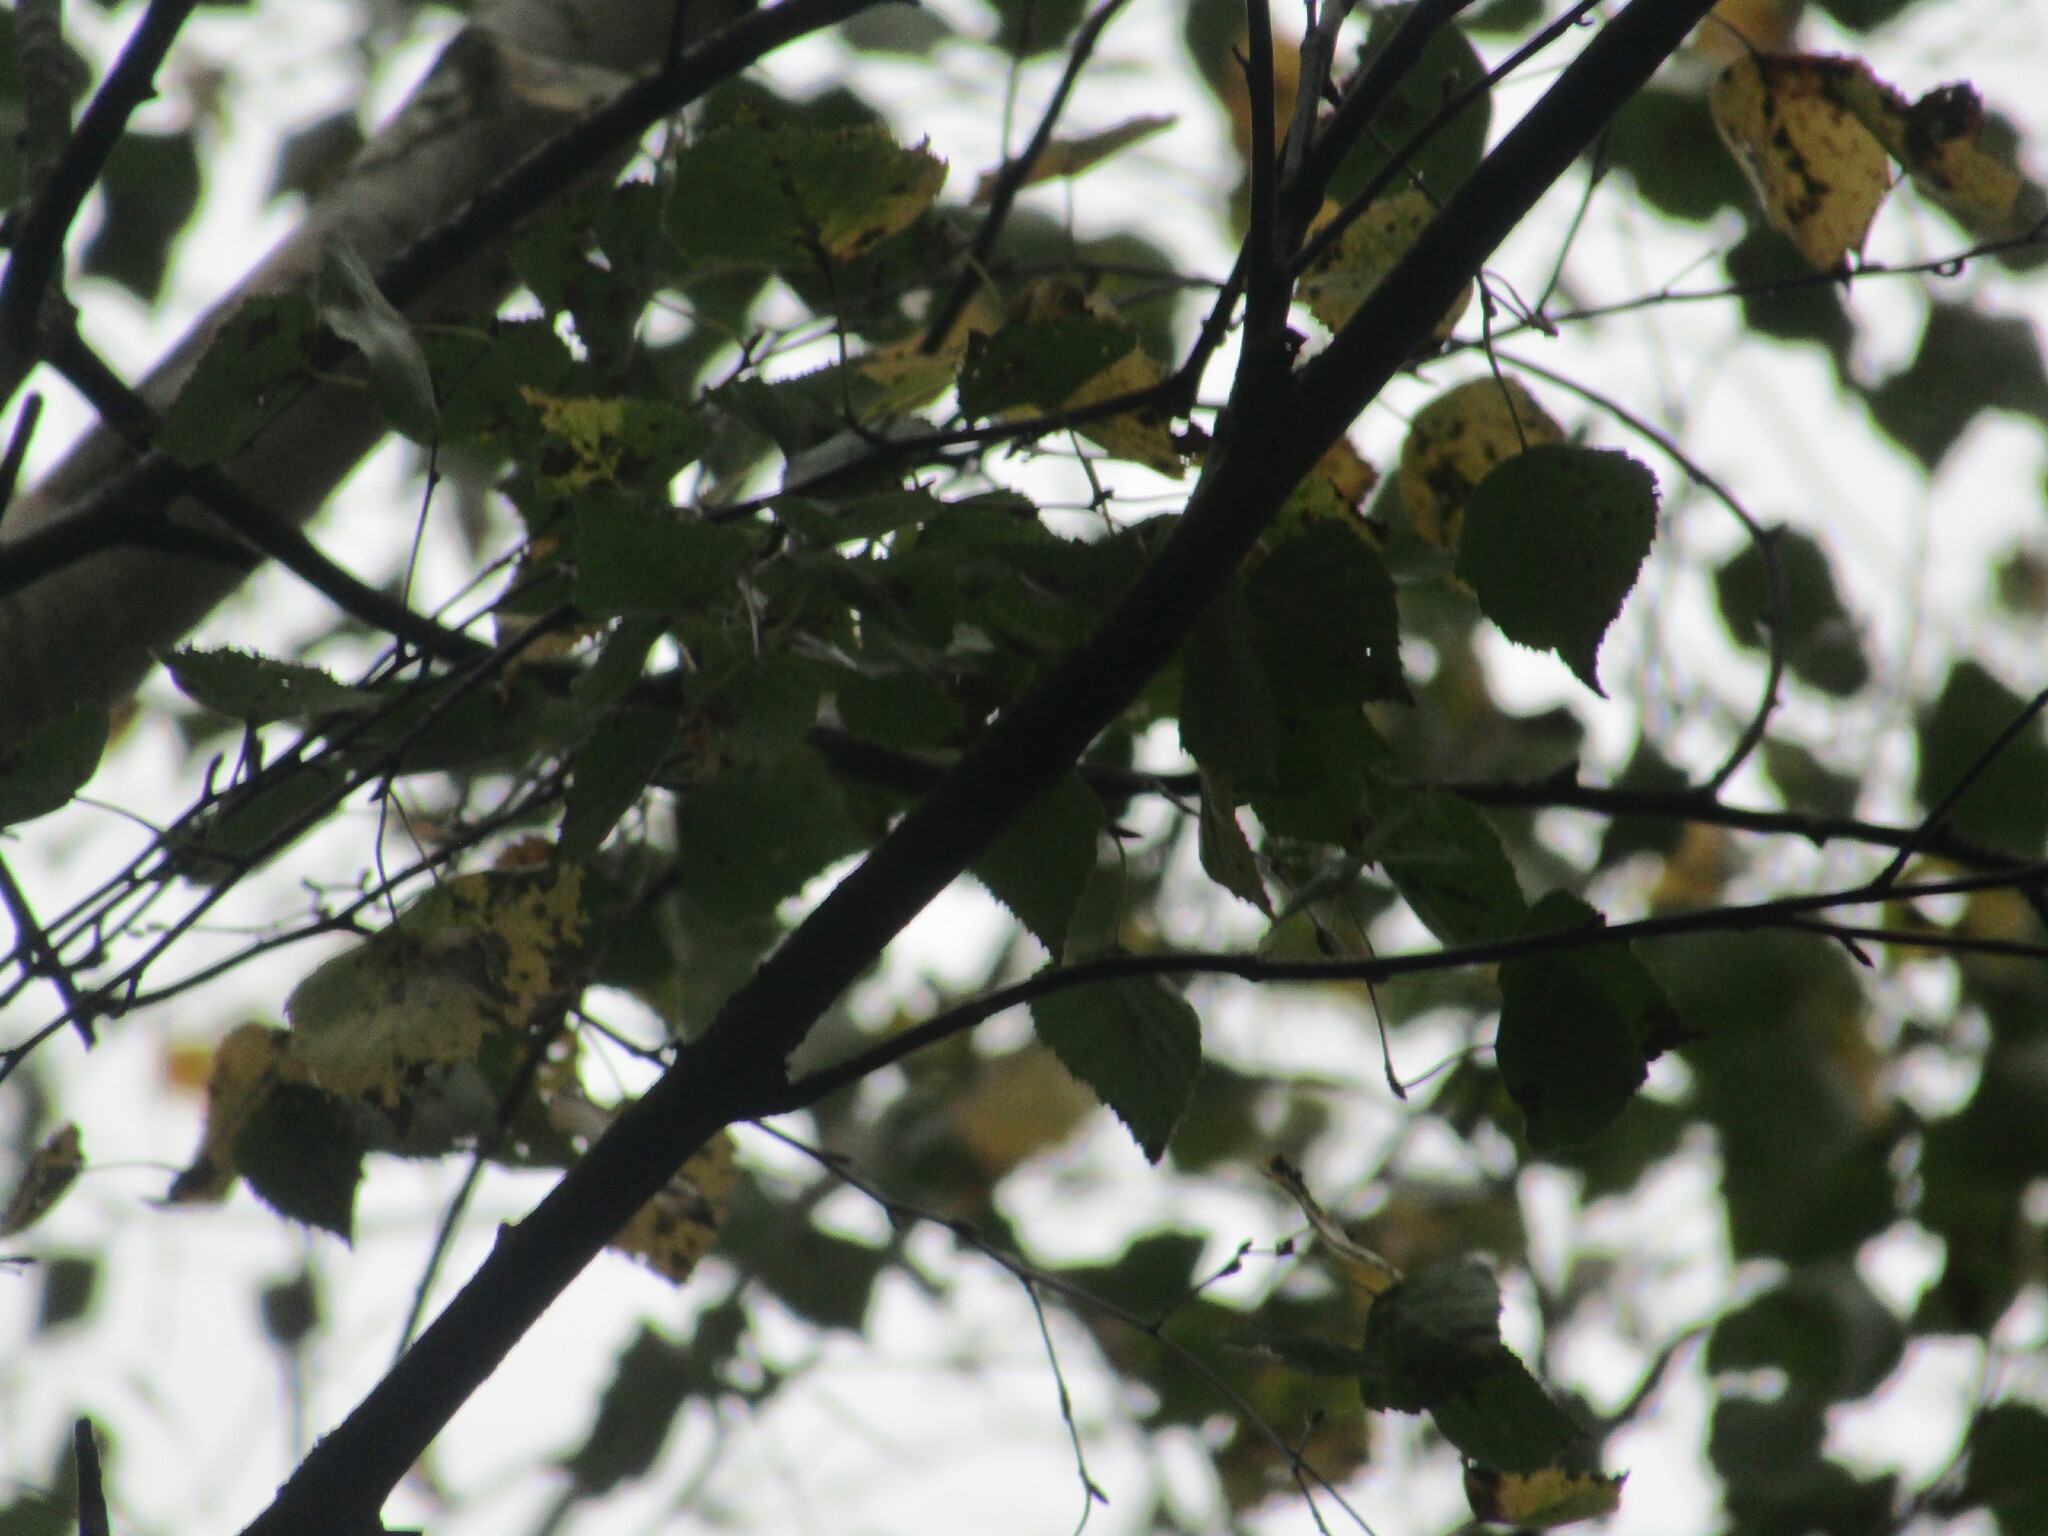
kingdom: Plantae
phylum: Tracheophyta
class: Magnoliopsida
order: Fagales
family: Betulaceae
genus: Betula
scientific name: Betula pendula
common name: Silver birch
